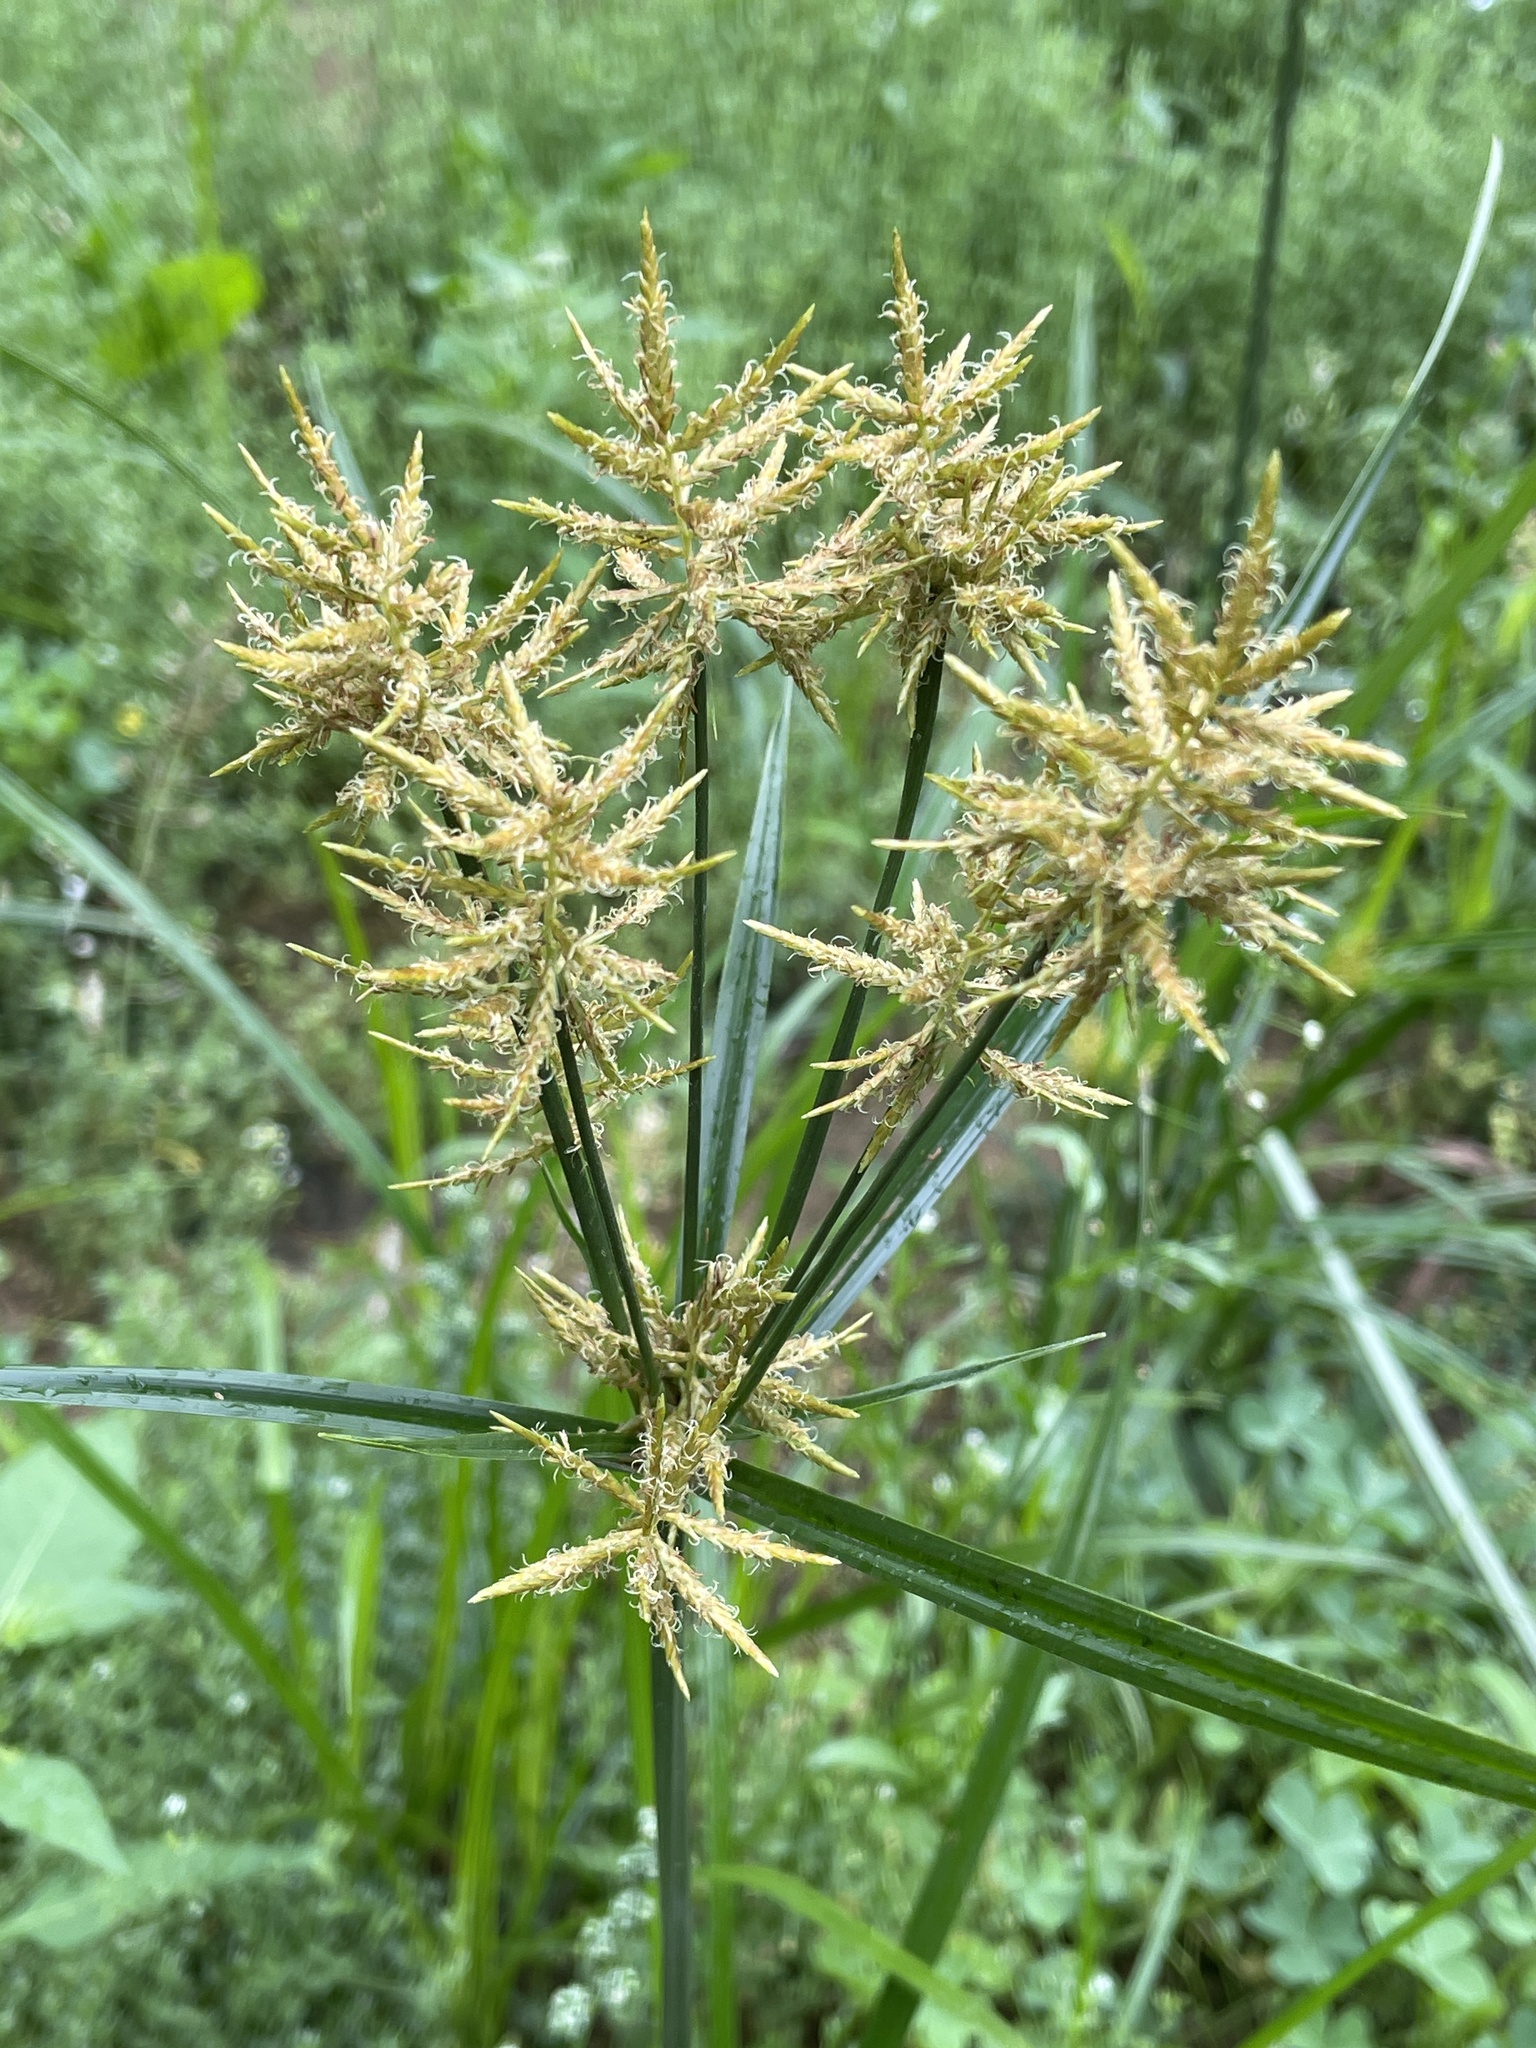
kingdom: Plantae
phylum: Tracheophyta
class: Liliopsida
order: Poales
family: Cyperaceae
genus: Cyperus
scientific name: Cyperus esculentus
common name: Yellow nutsedge
